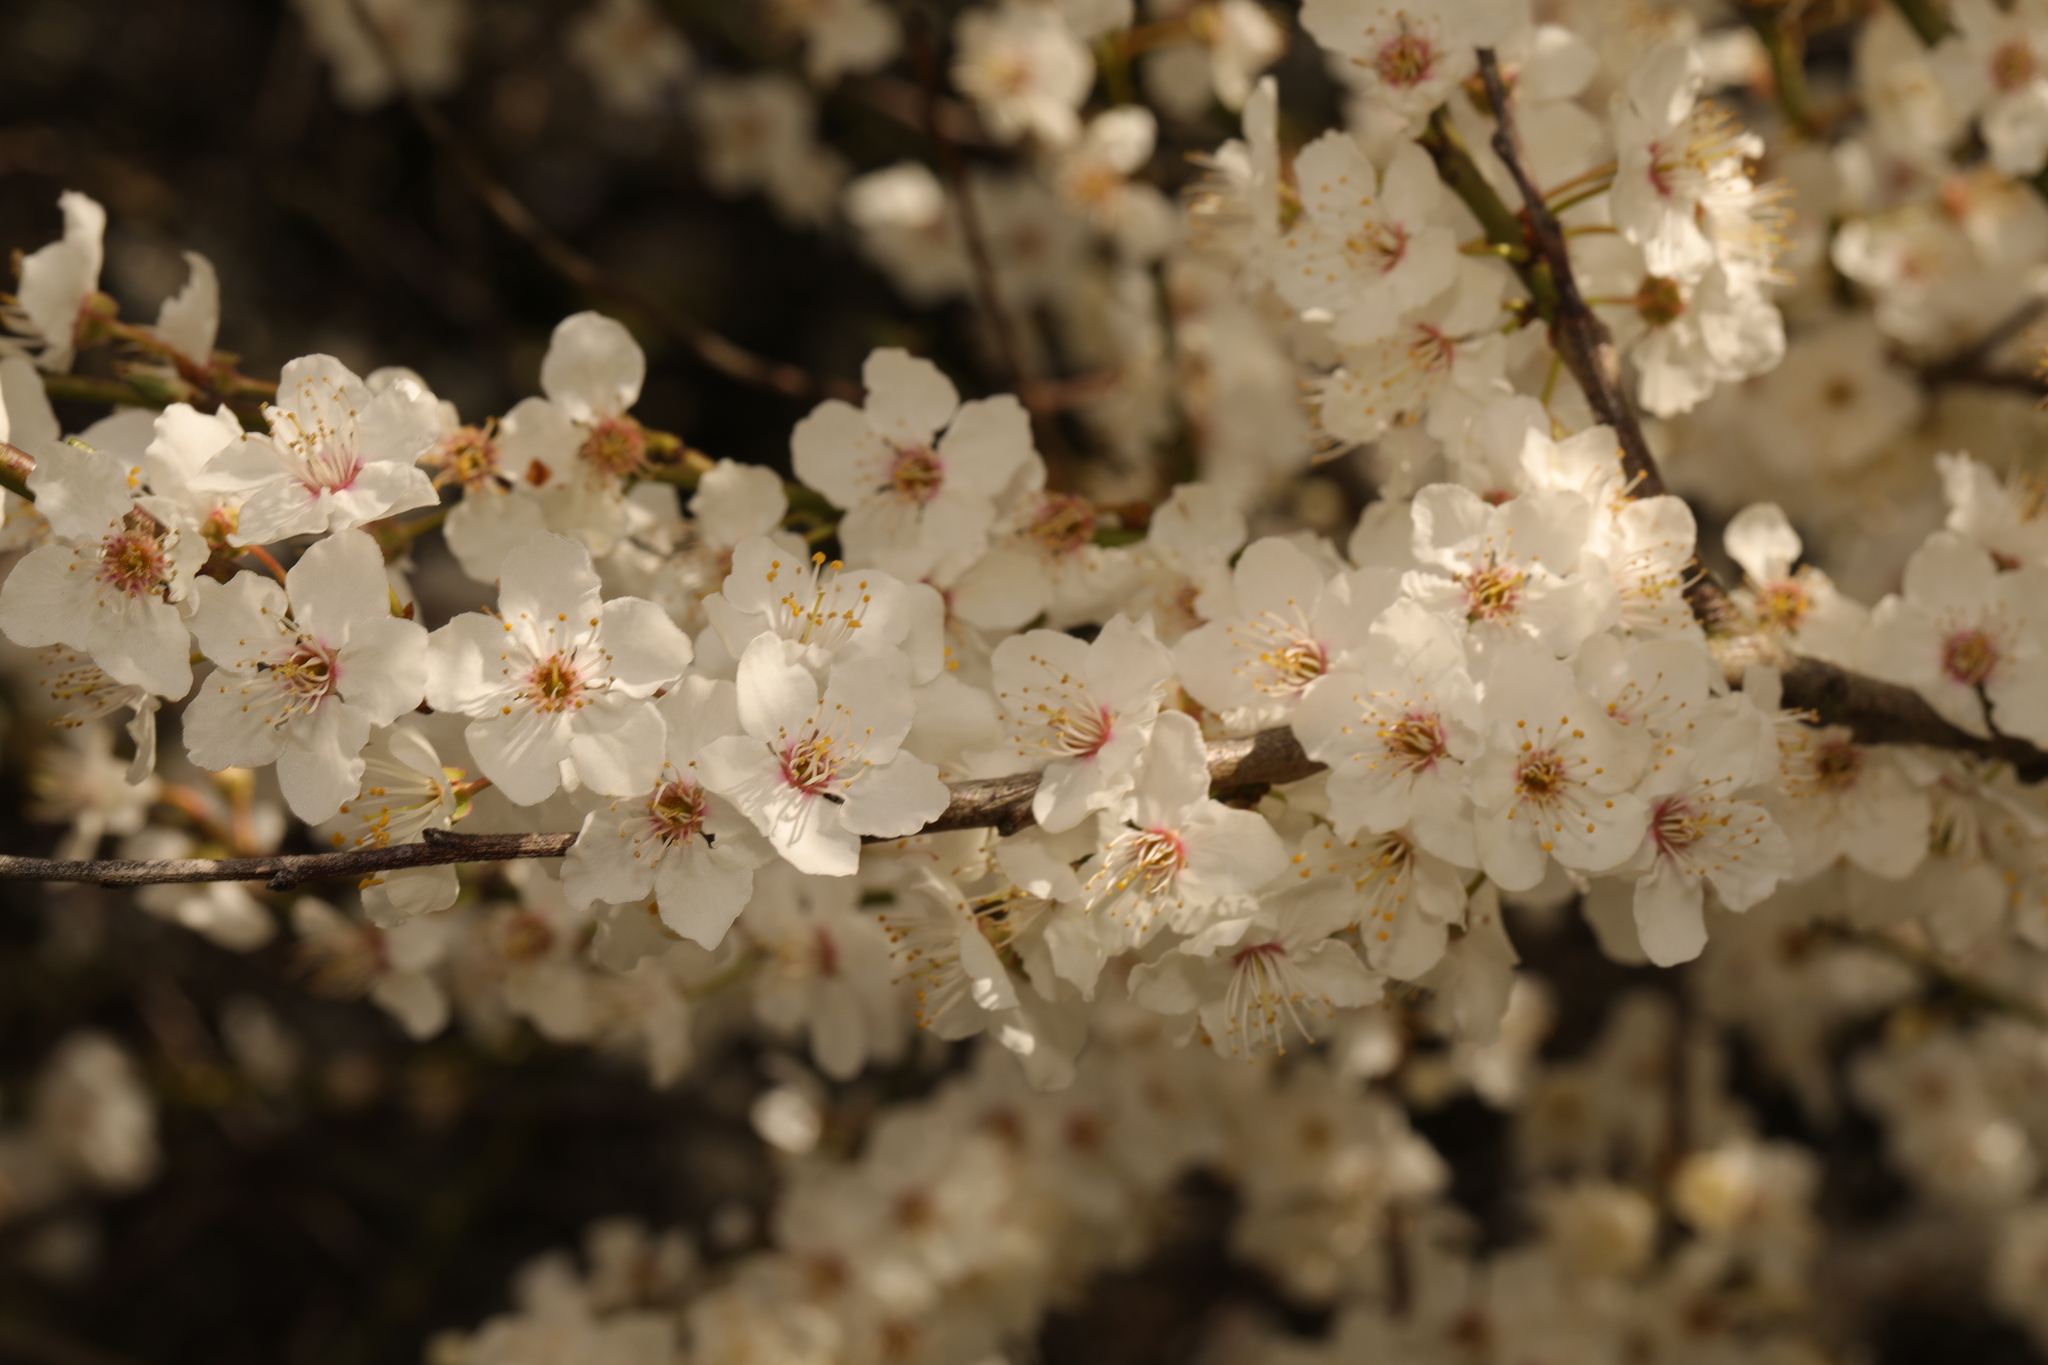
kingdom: Plantae
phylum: Tracheophyta
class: Magnoliopsida
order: Rosales
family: Rosaceae
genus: Prunus
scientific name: Prunus cerasifera
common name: Cherry plum
